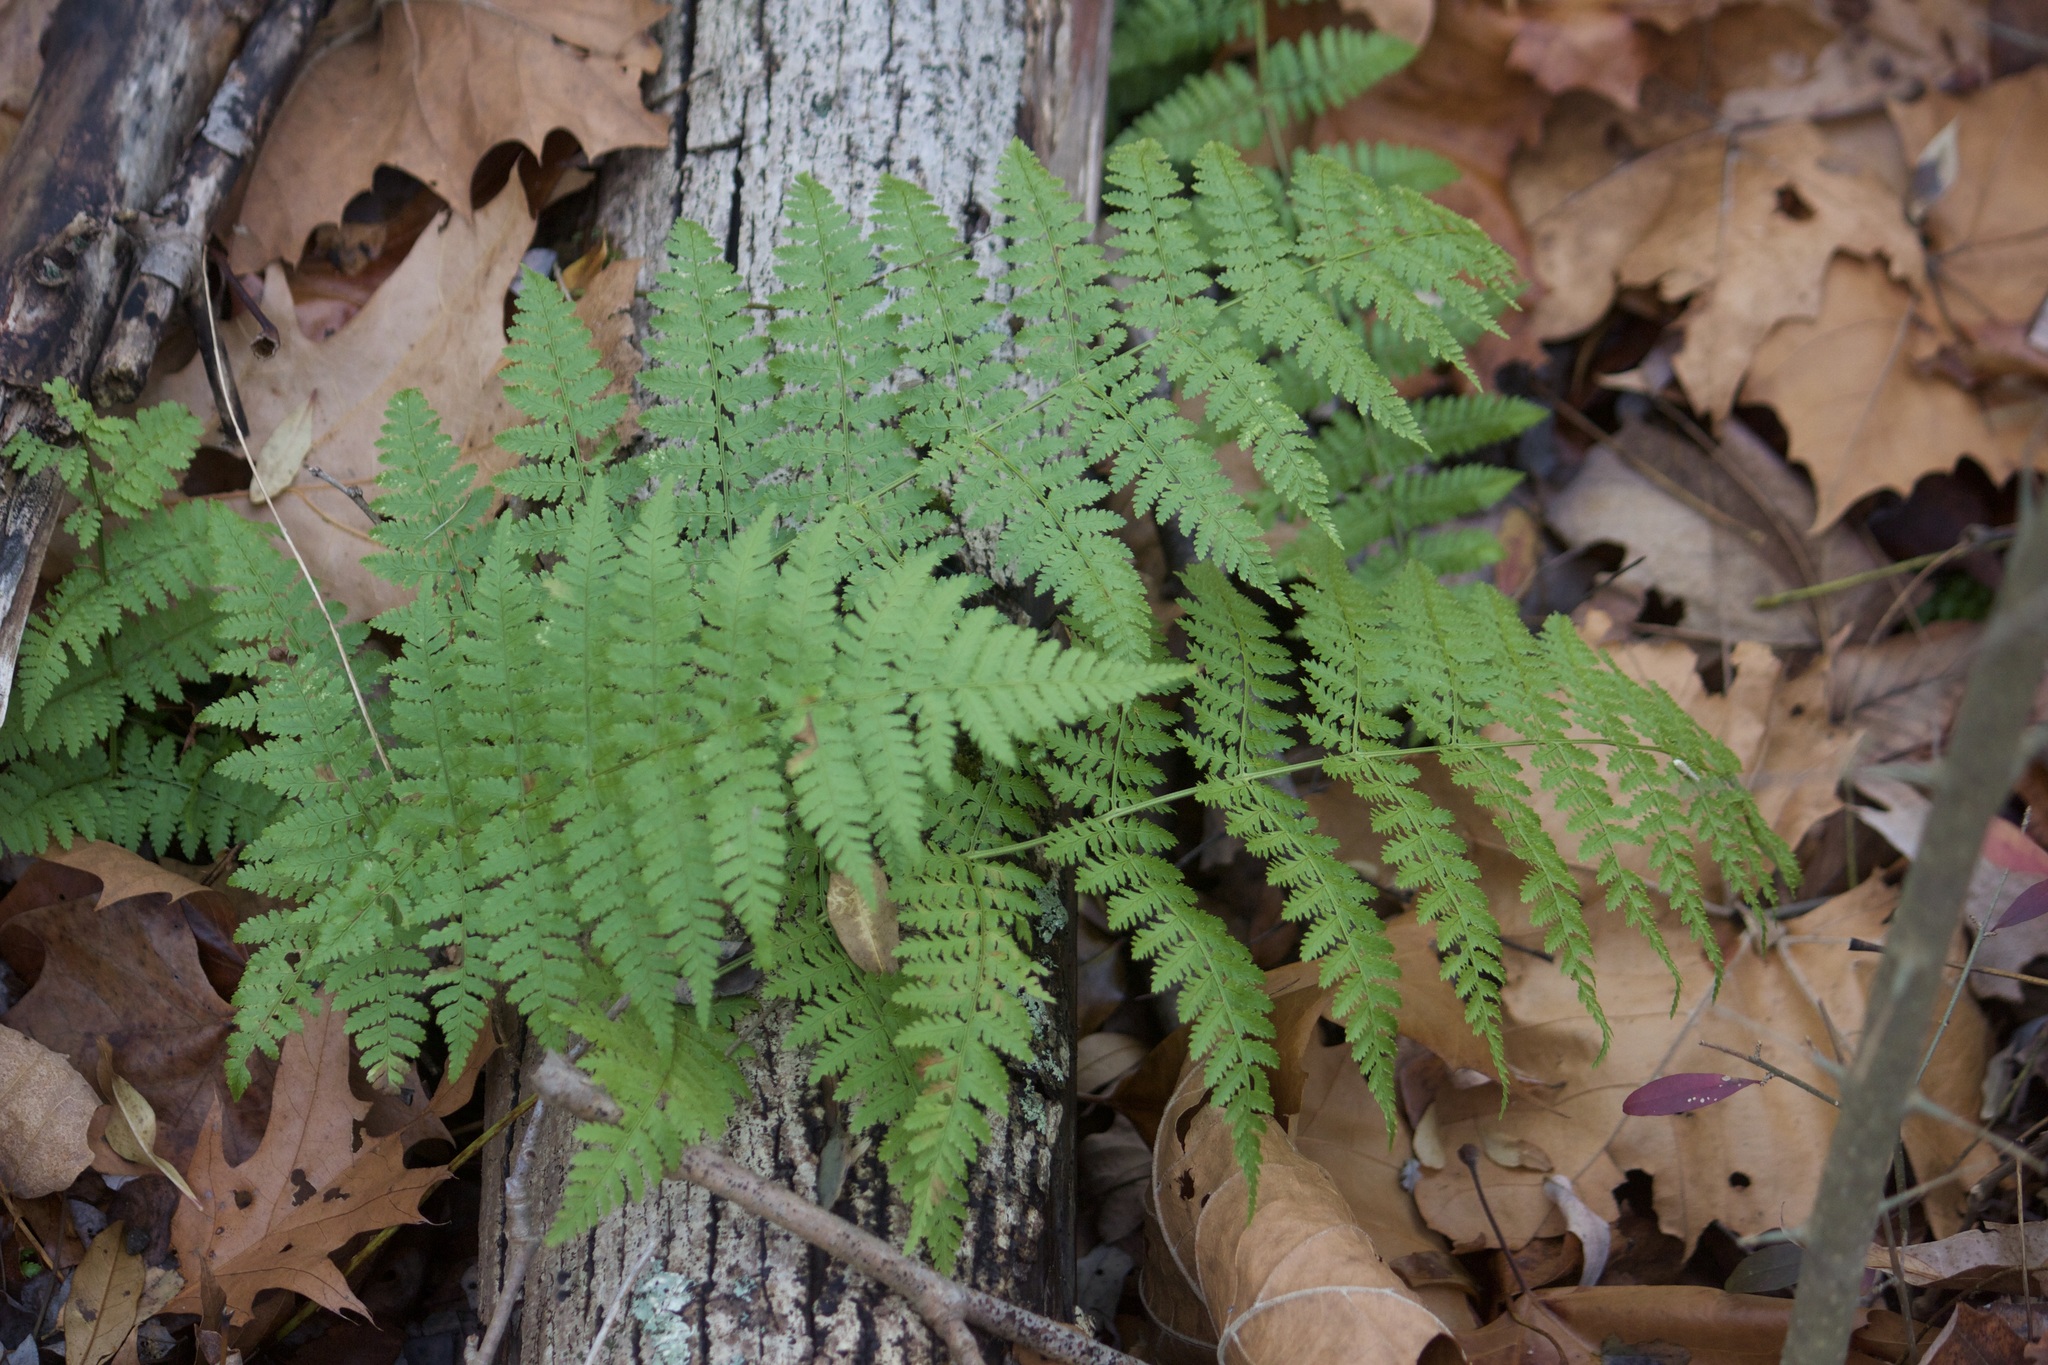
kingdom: Plantae
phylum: Tracheophyta
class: Polypodiopsida
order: Polypodiales
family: Dryopteridaceae
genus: Dryopteris
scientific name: Dryopteris intermedia
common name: Evergreen wood fern
